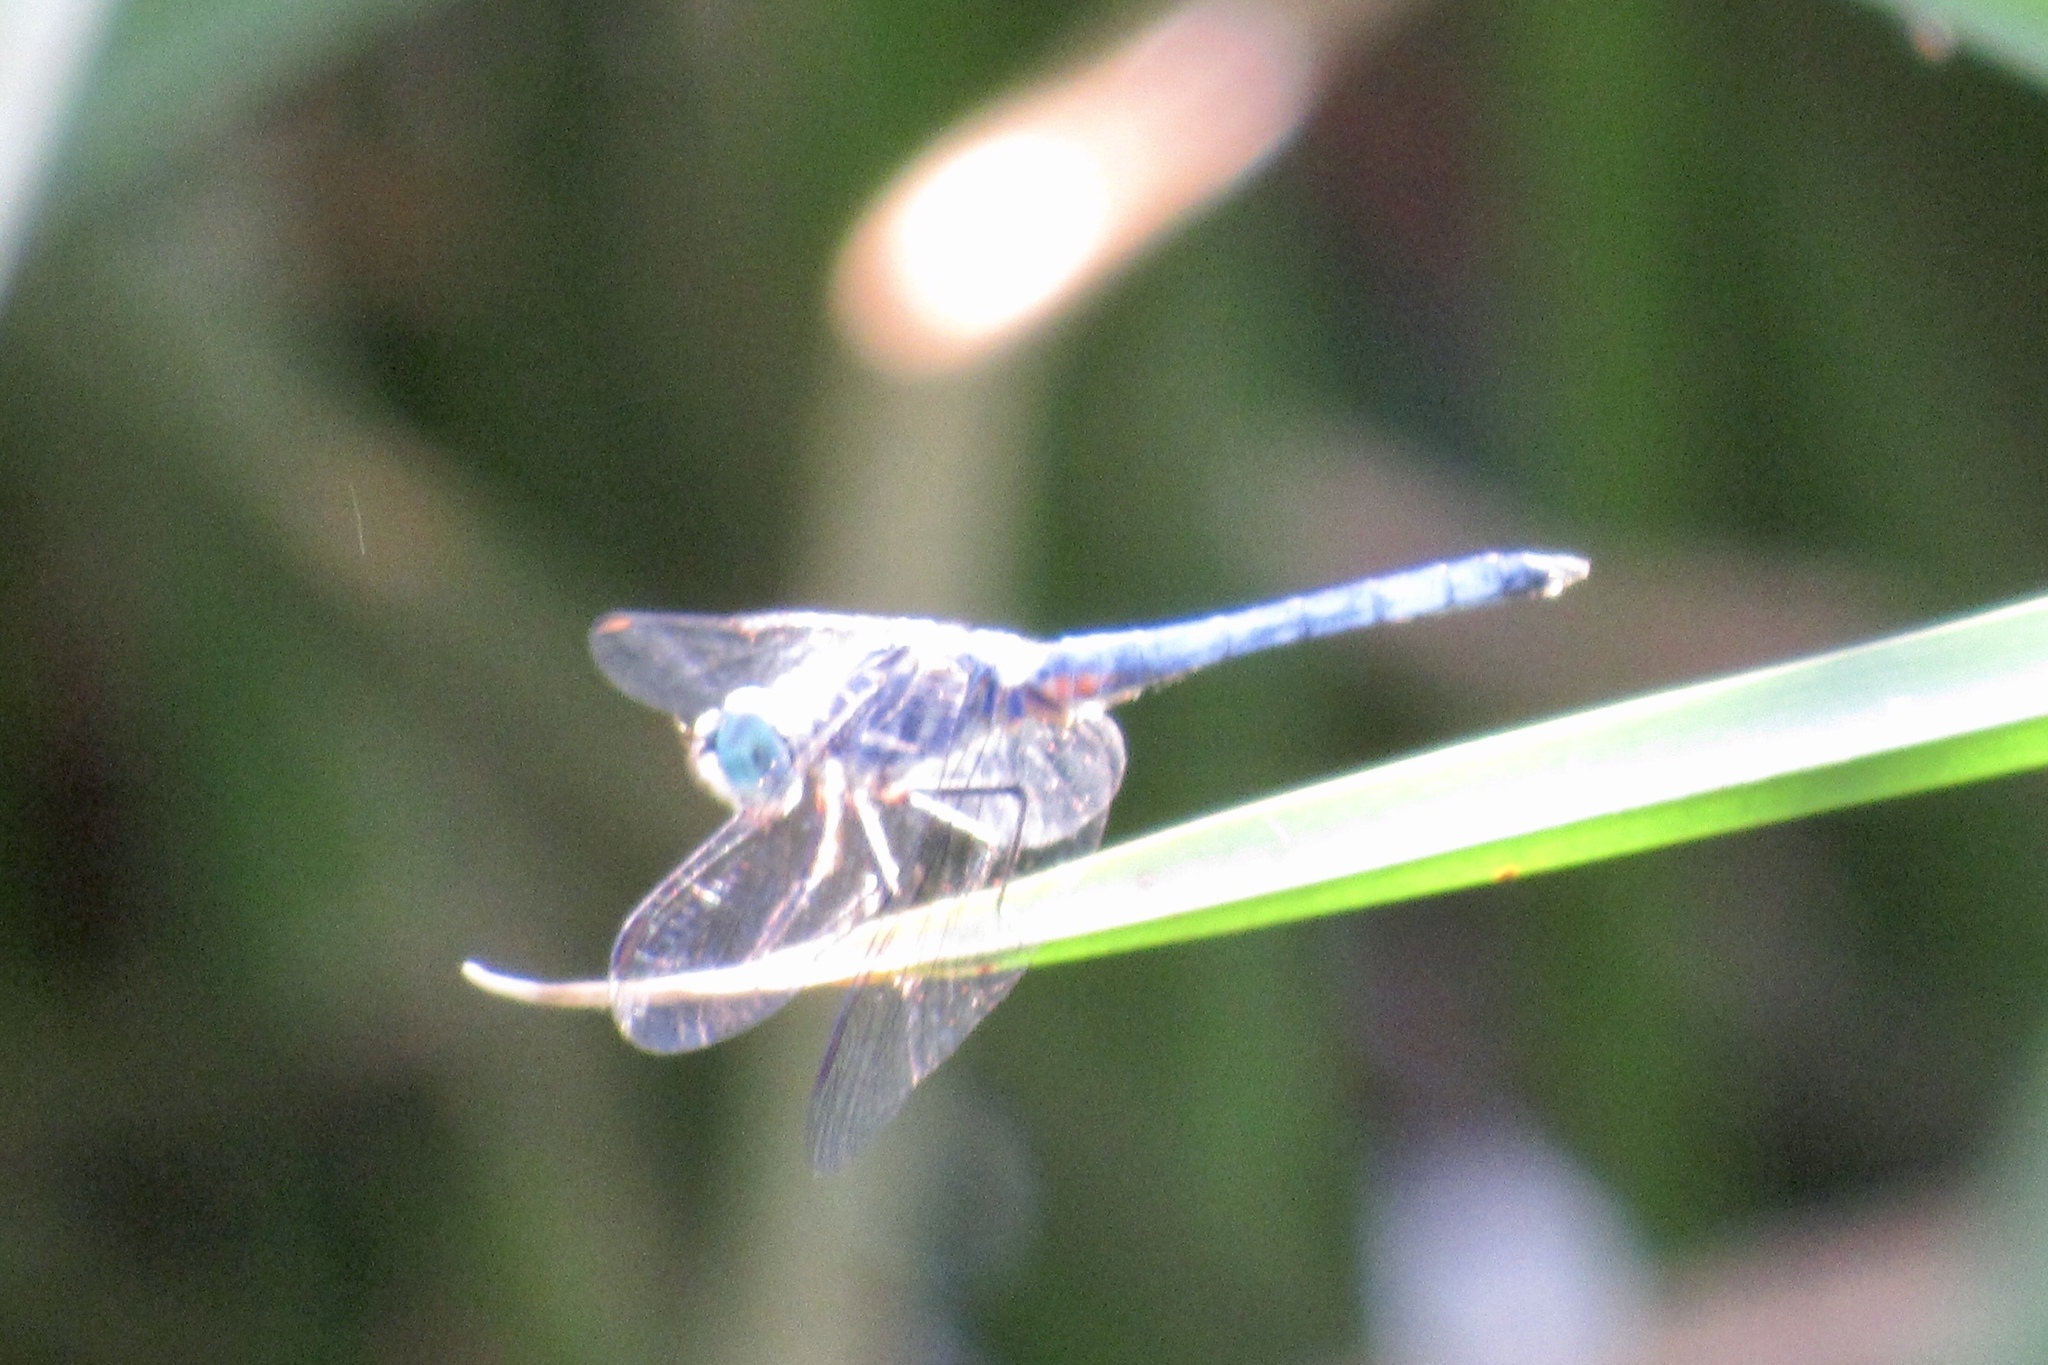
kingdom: Animalia
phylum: Arthropoda
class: Insecta
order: Odonata
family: Libellulidae
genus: Pachydiplax
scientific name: Pachydiplax longipennis
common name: Blue dasher
